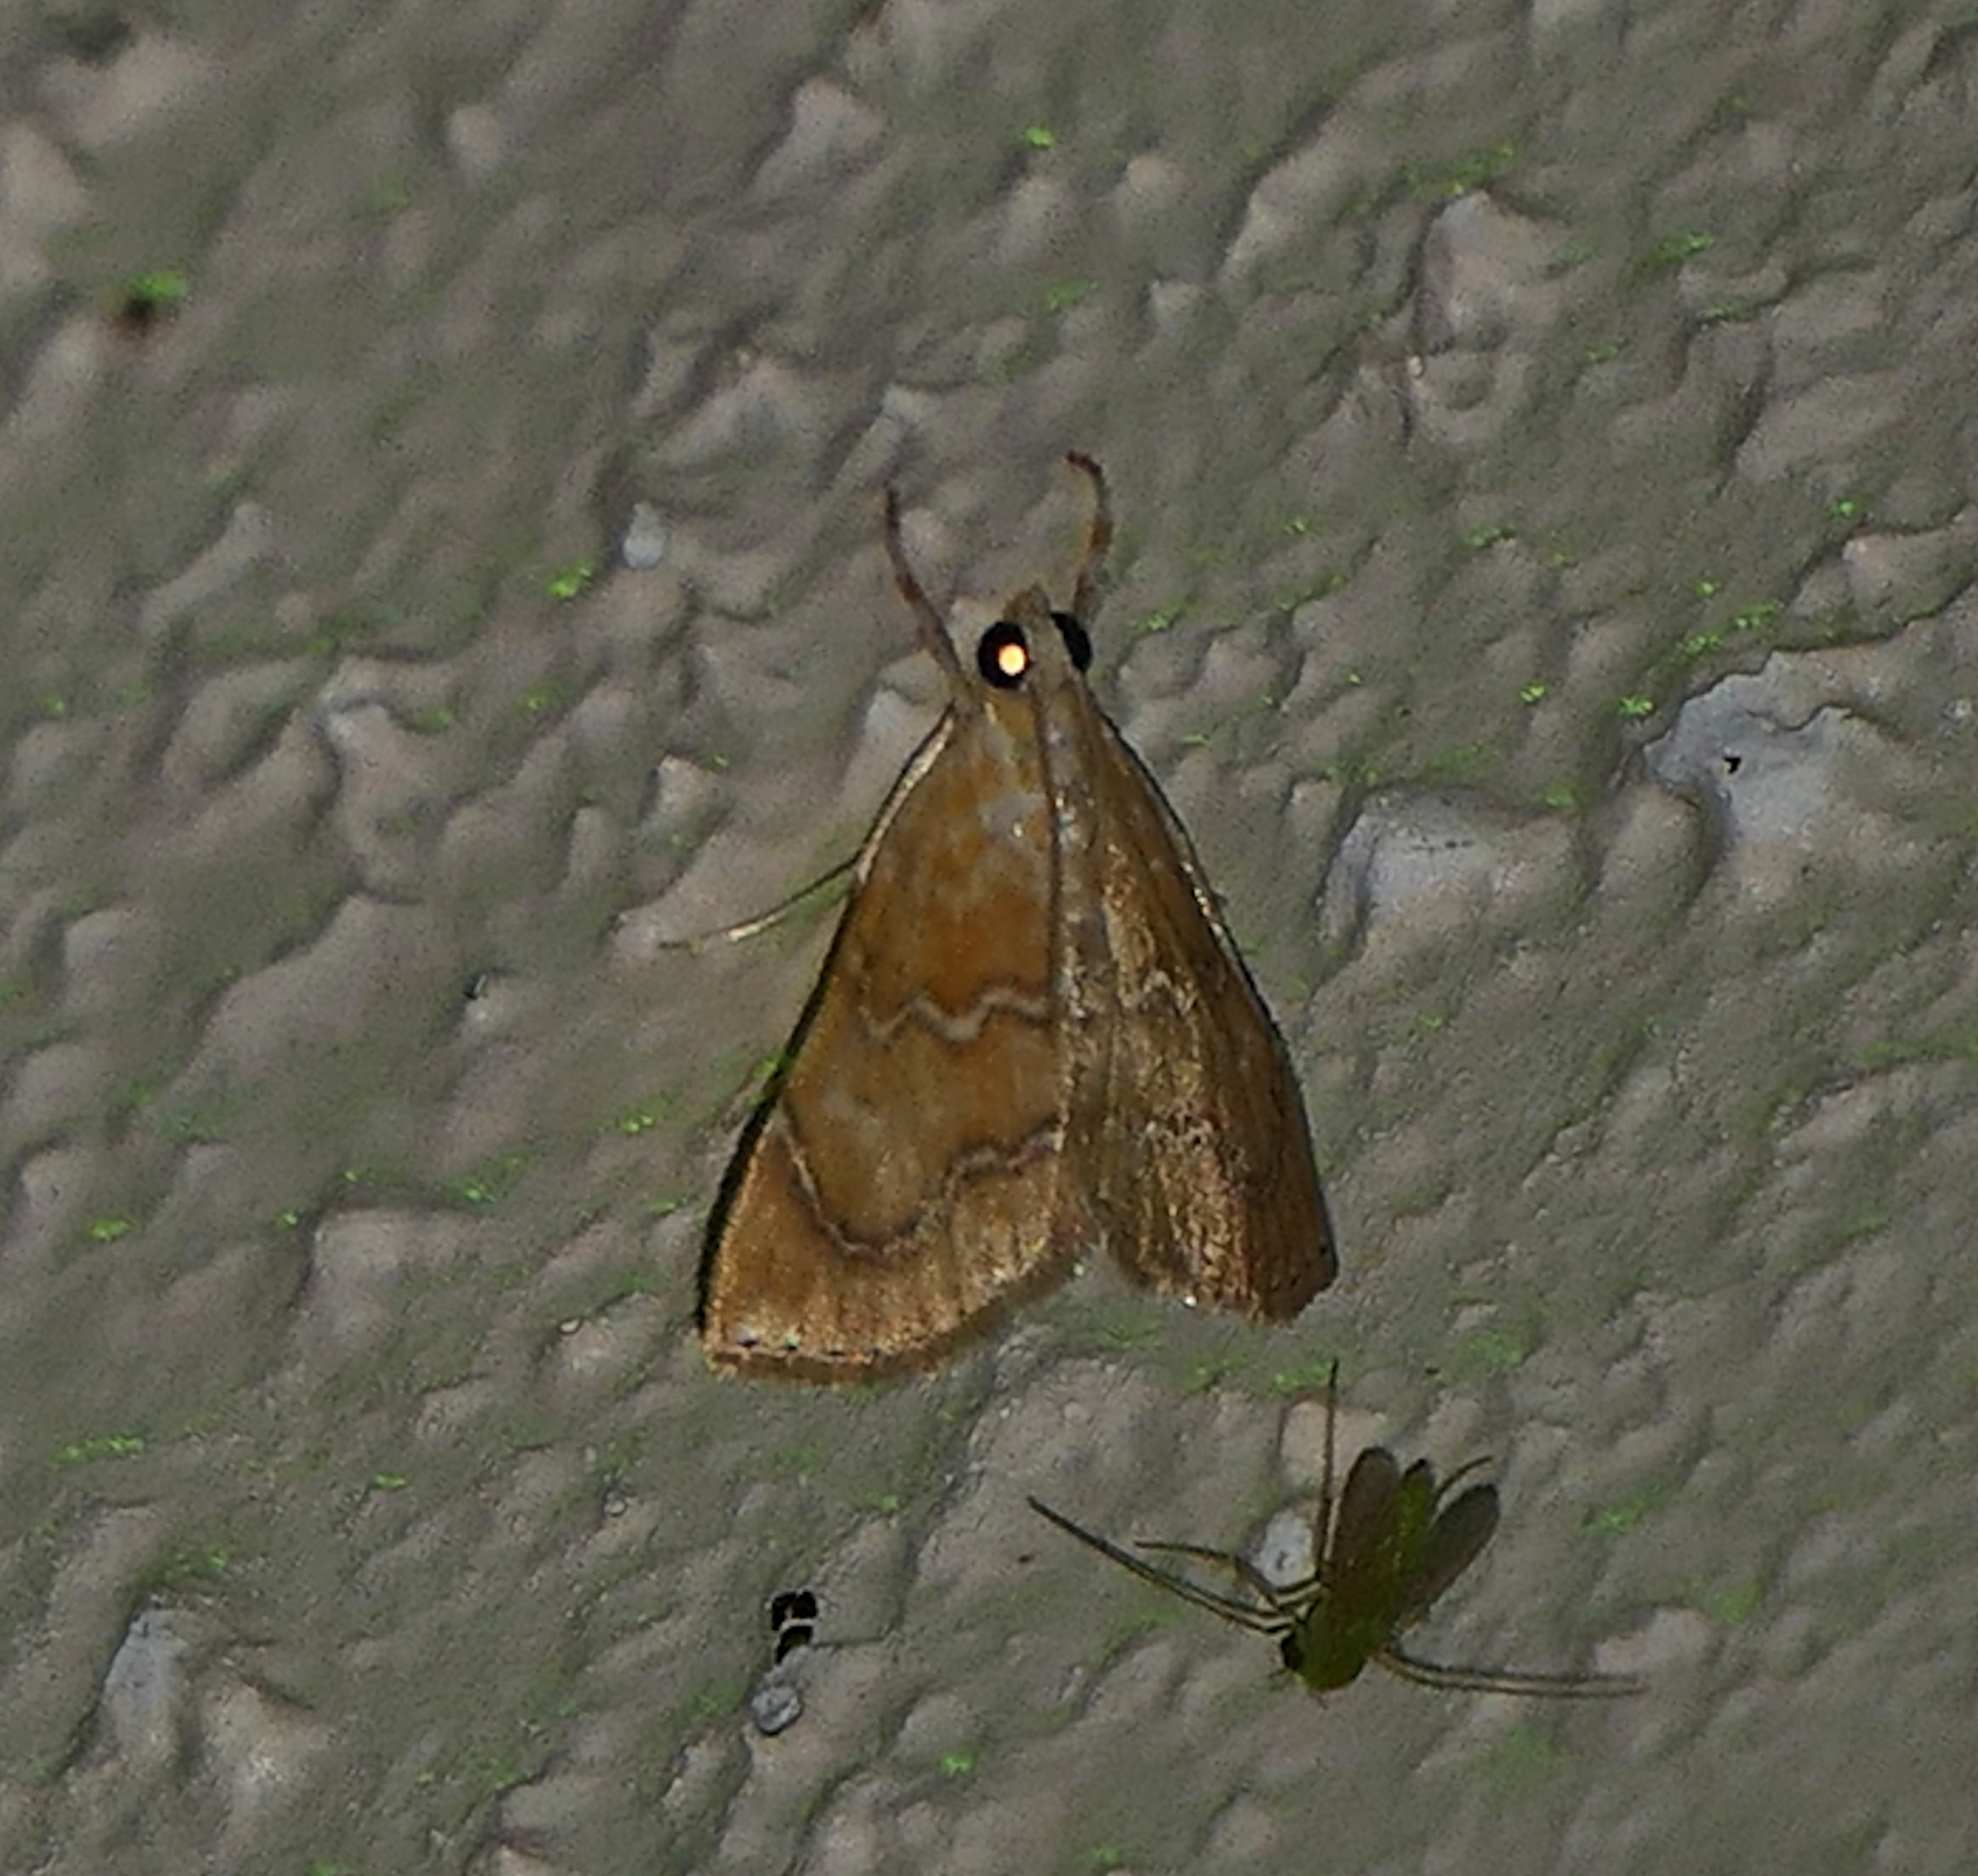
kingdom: Animalia
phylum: Arthropoda
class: Insecta
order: Lepidoptera
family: Crambidae
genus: Glaphyria
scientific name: Glaphyria sesquistrialis
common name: White-roped glaphyria
